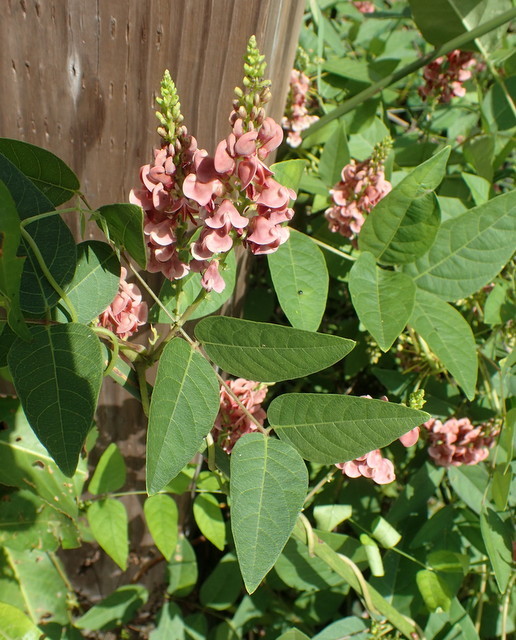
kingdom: Plantae
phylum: Tracheophyta
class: Magnoliopsida
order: Fabales
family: Fabaceae
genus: Apios
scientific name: Apios americana
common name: American potato-bean
